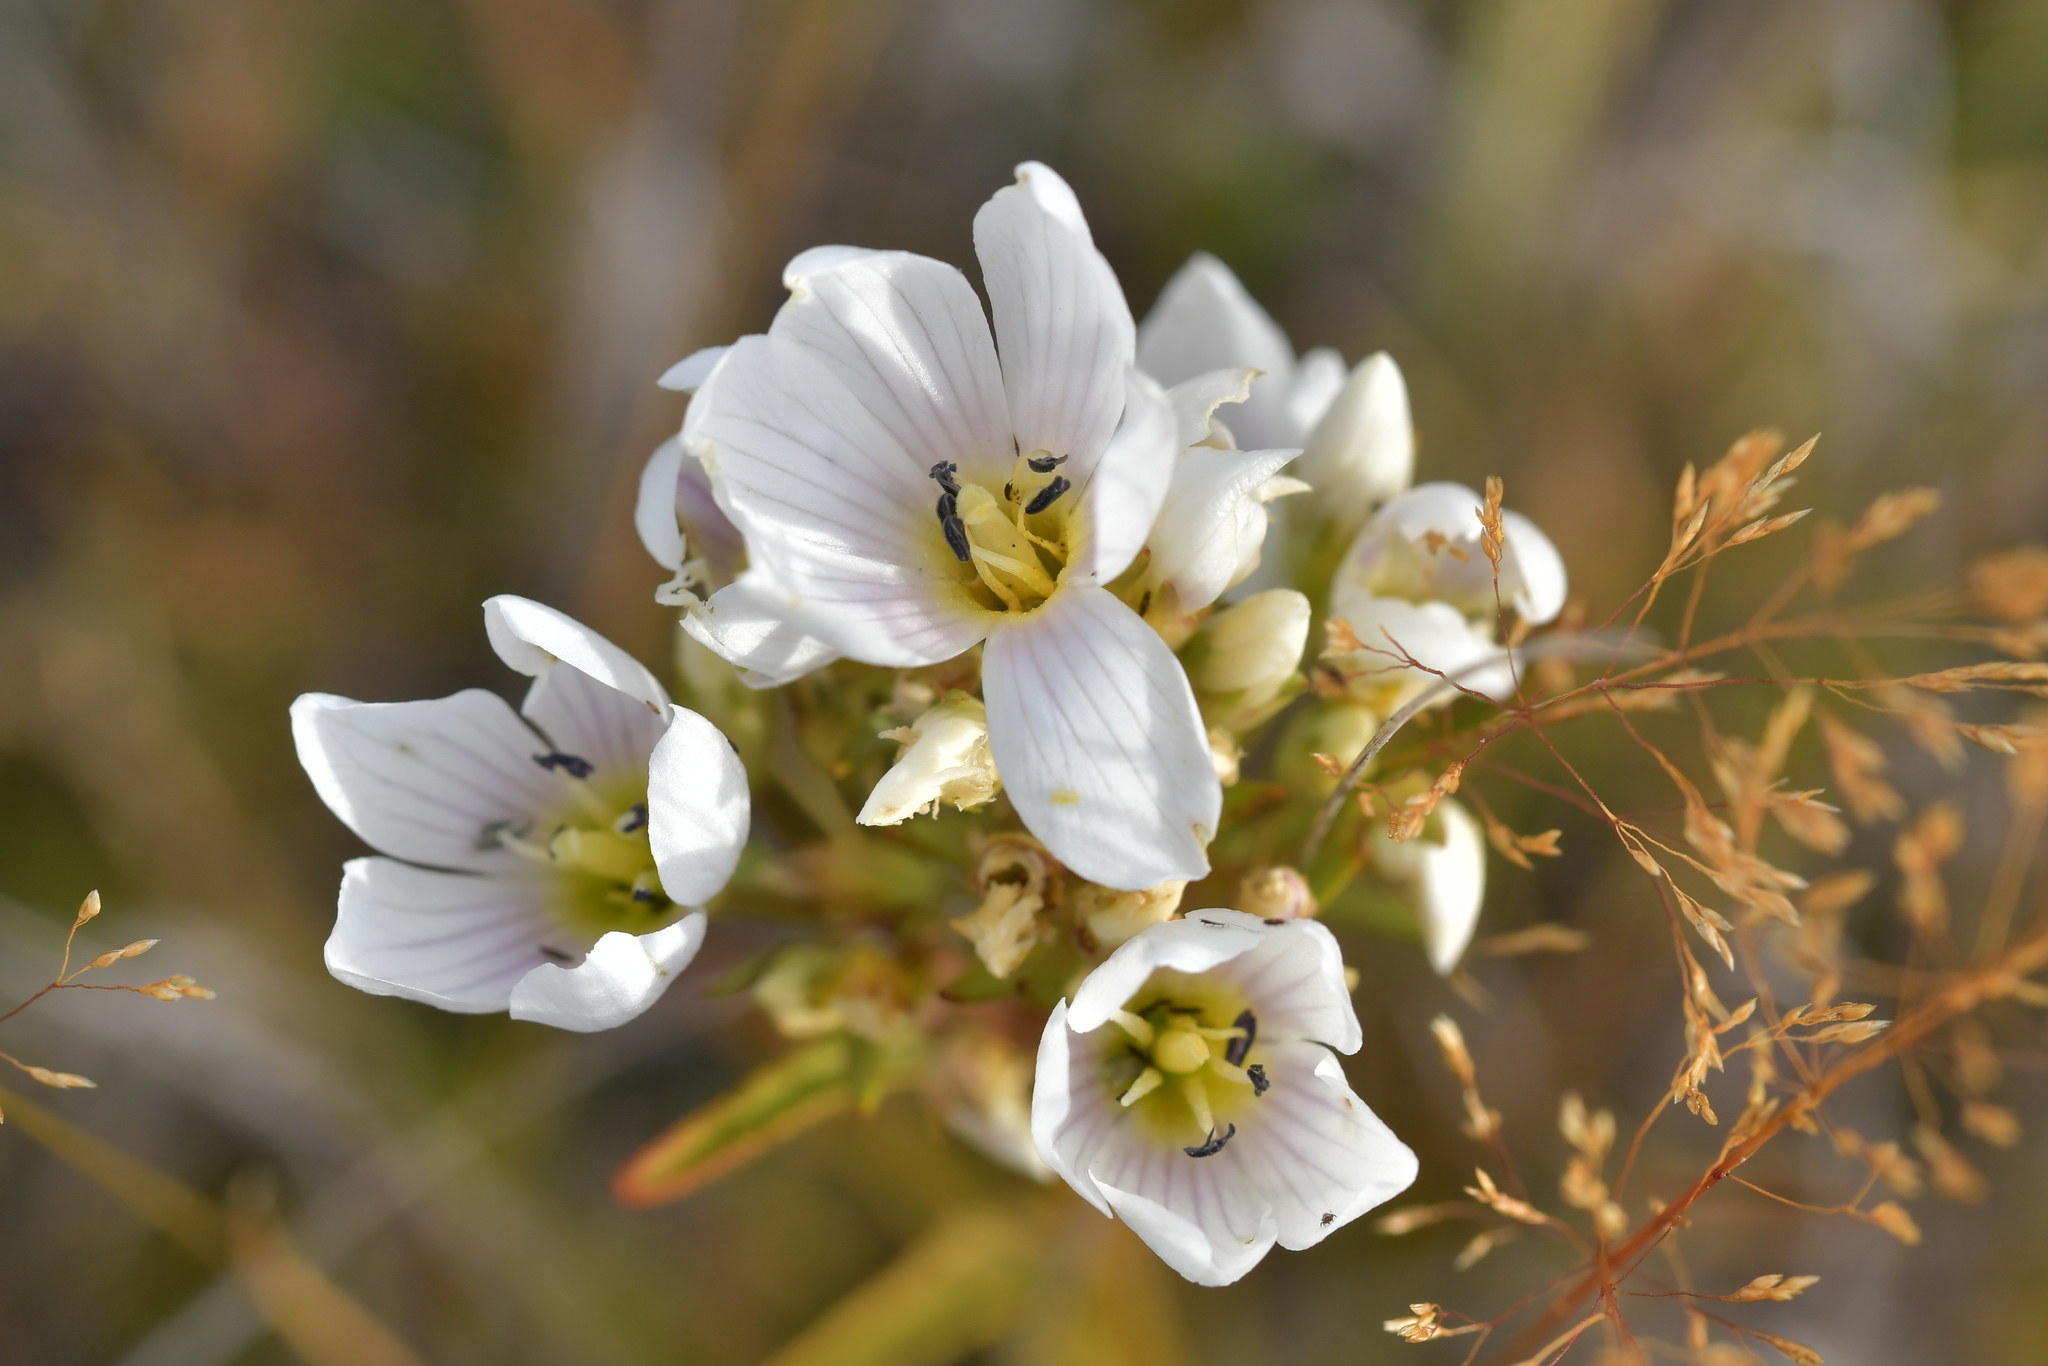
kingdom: Plantae
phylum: Tracheophyta
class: Magnoliopsida
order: Gentianales
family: Gentianaceae
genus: Gentianella
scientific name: Gentianella corymbifera
